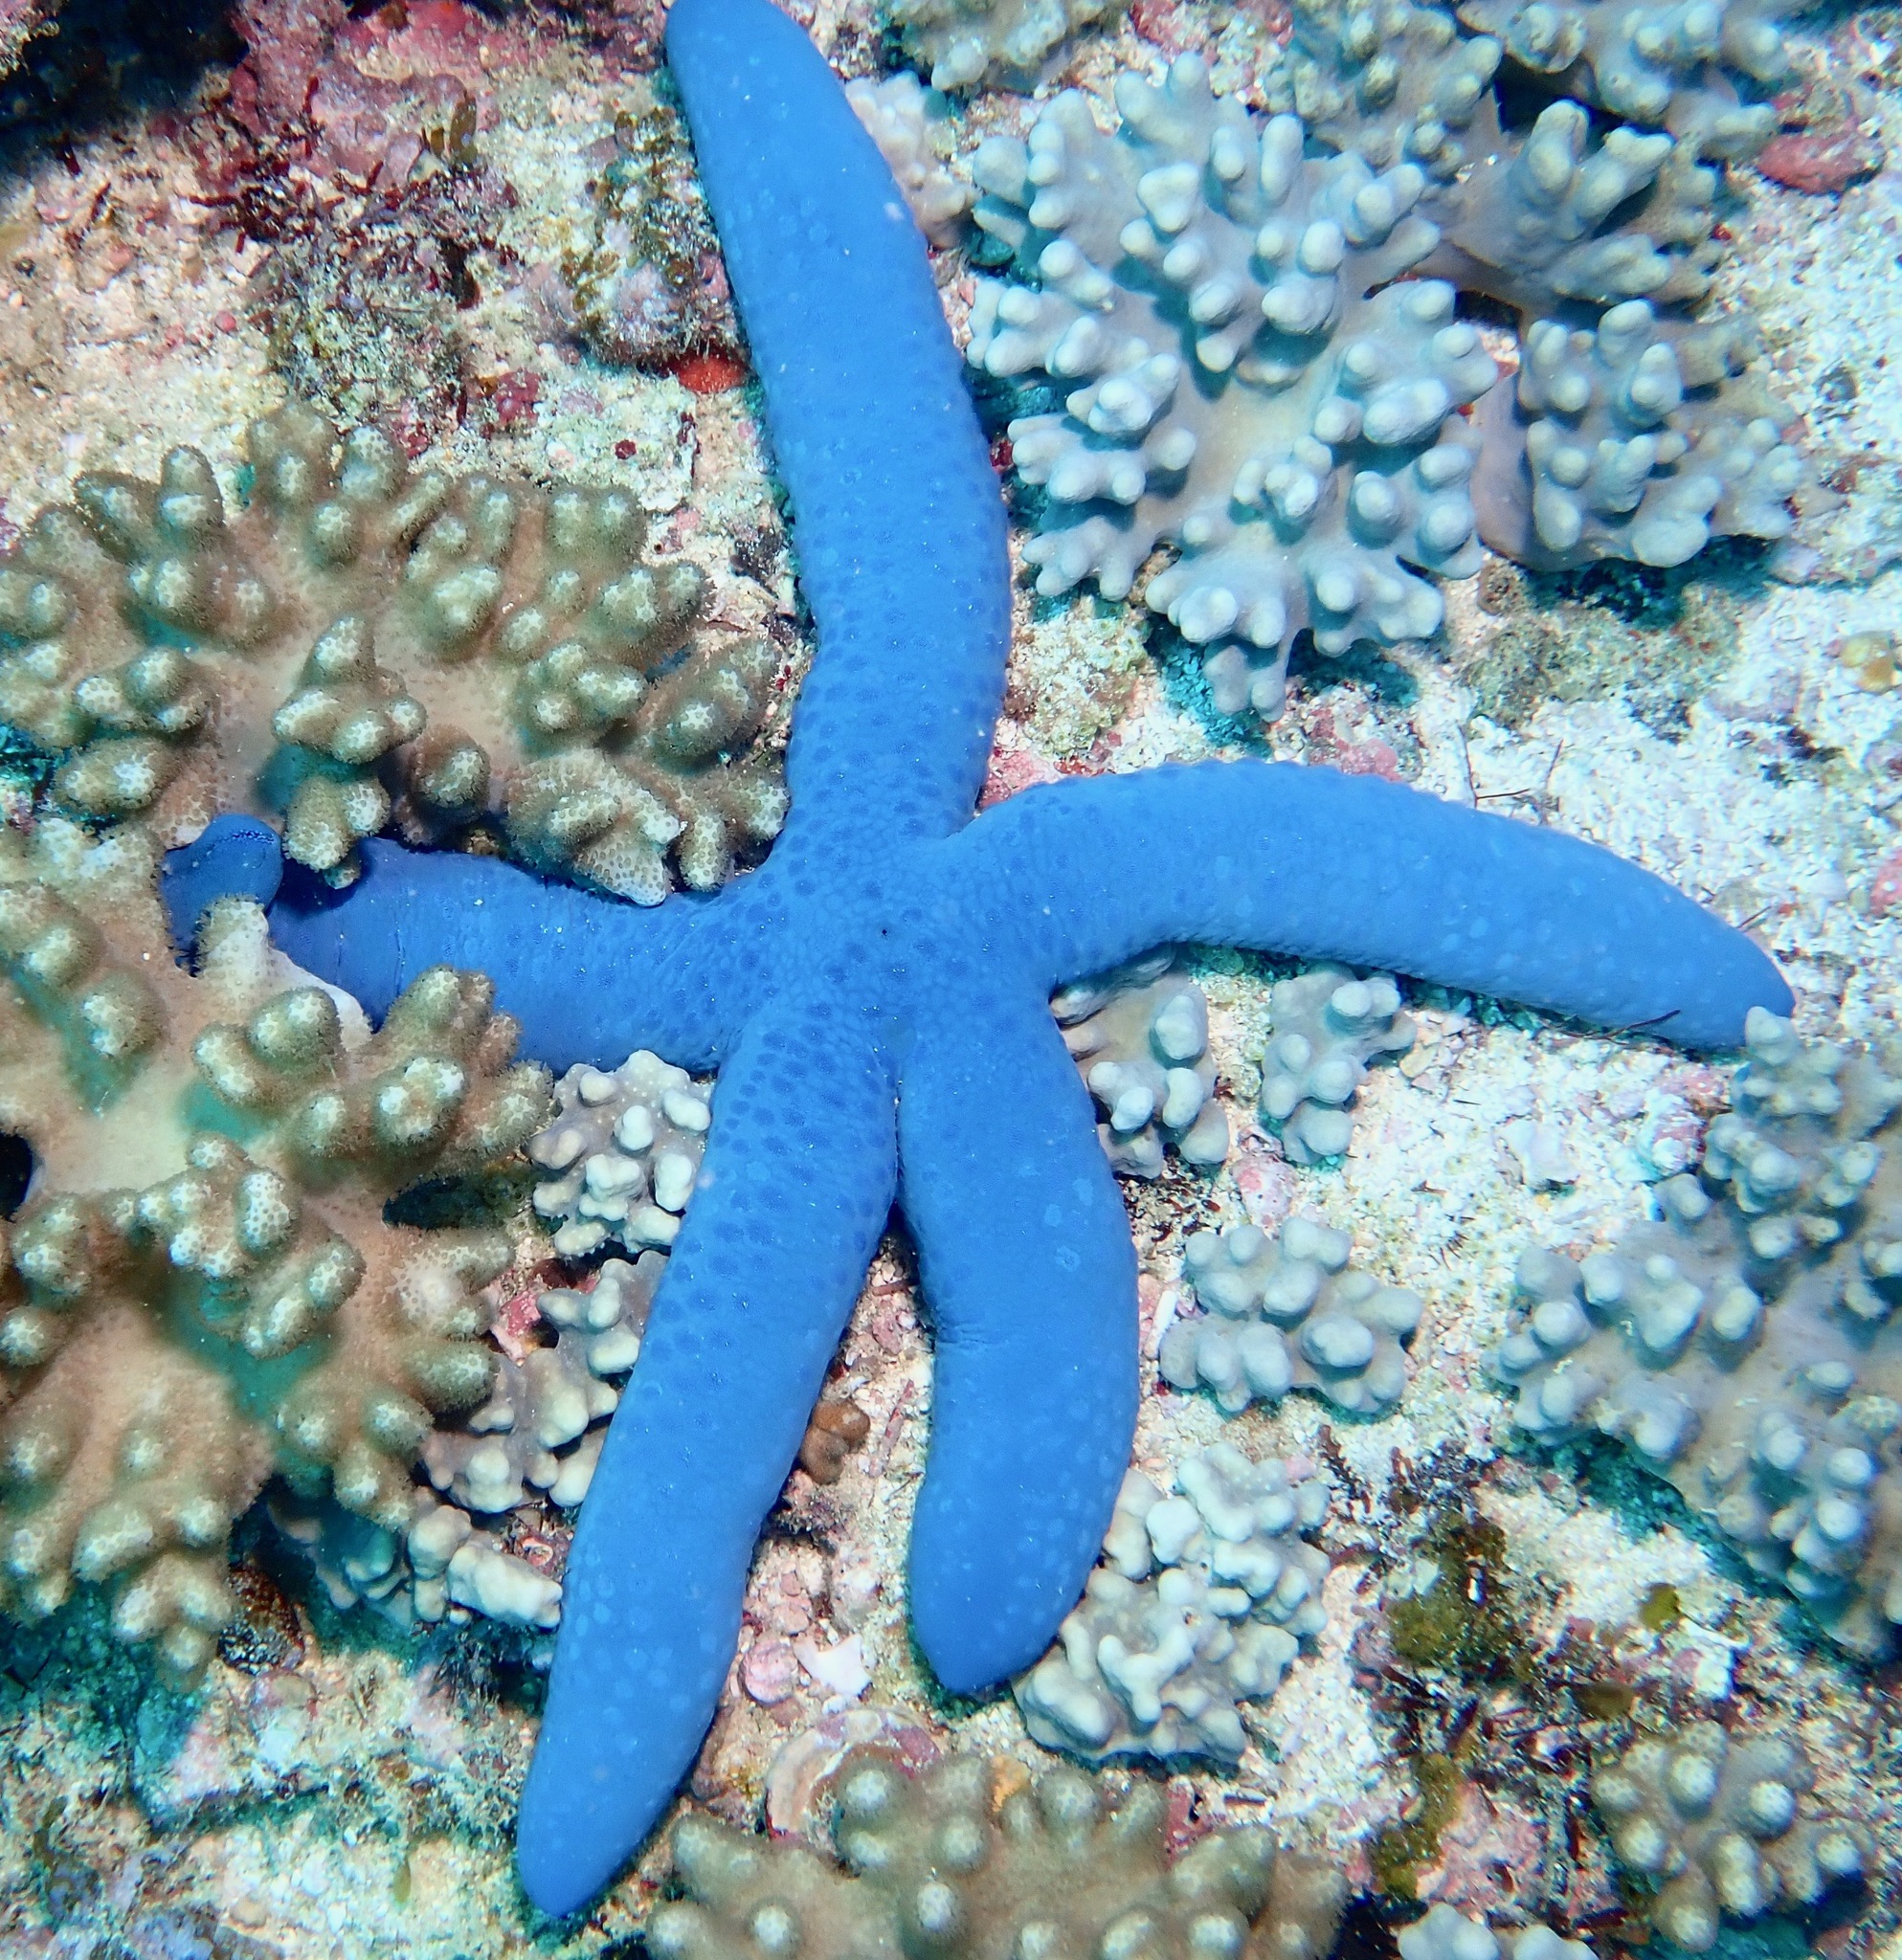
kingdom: Animalia
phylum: Echinodermata
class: Asteroidea
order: Valvatida
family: Ophidiasteridae
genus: Linckia
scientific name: Linckia laevigata
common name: Azure sea star
